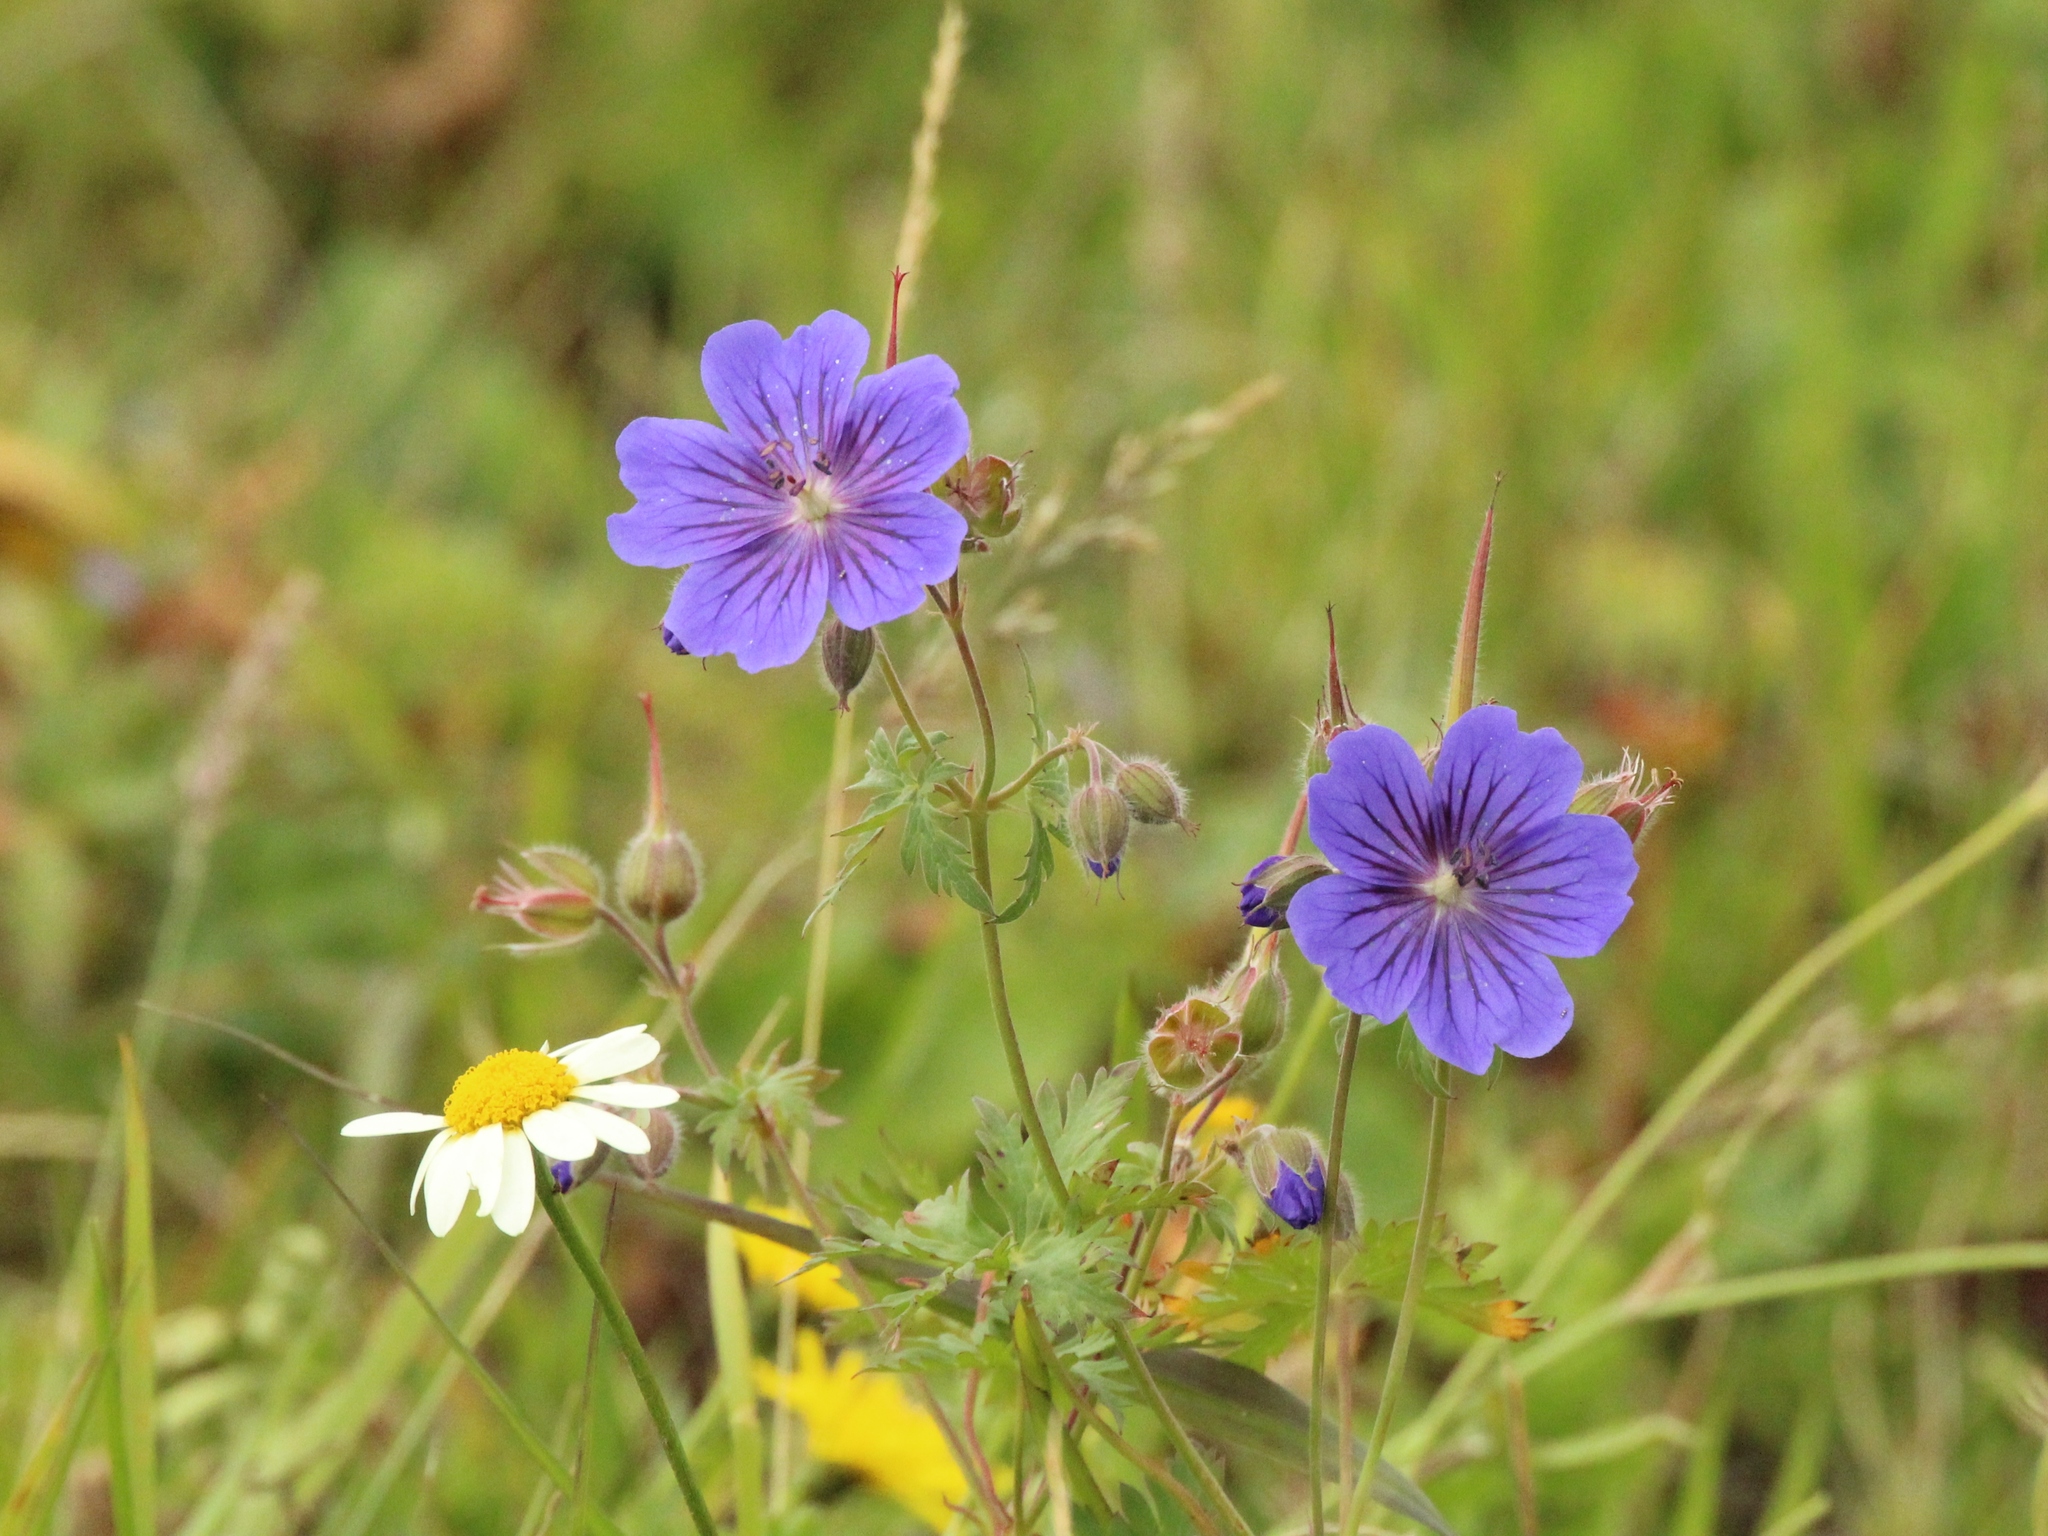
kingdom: Plantae
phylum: Tracheophyta
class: Magnoliopsida
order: Geraniales
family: Geraniaceae
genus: Geranium
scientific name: Geranium gymnocaulon
